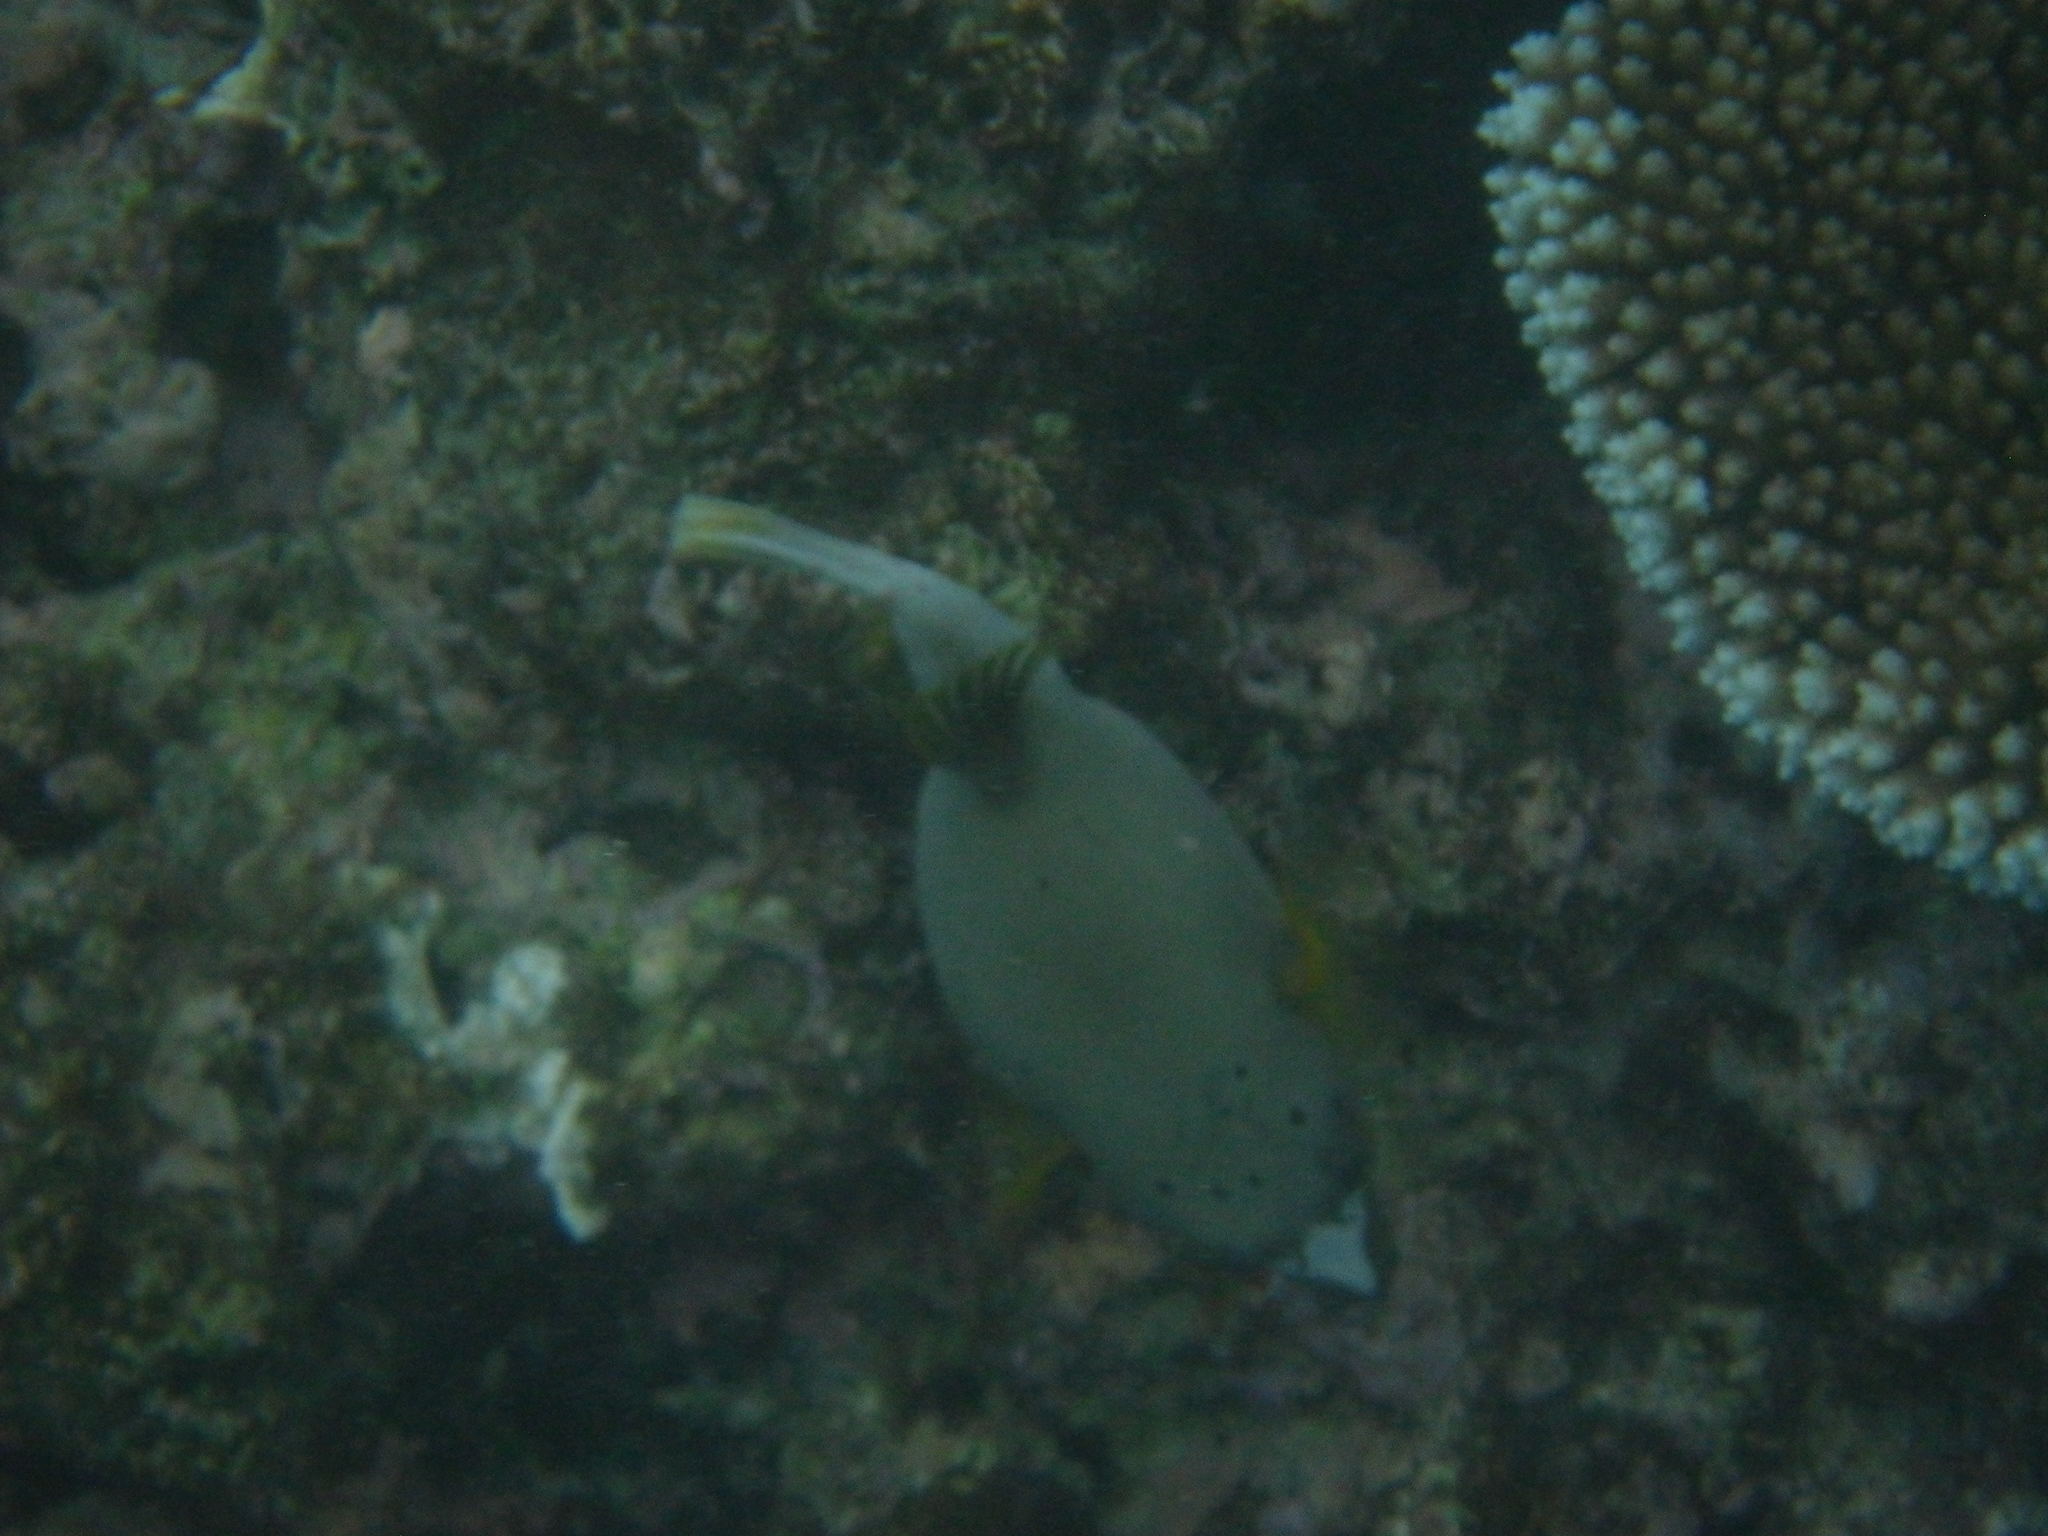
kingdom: Animalia
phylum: Chordata
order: Tetraodontiformes
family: Tetraodontidae
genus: Arothron
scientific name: Arothron nigropunctatus
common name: Black spotted blow fish
